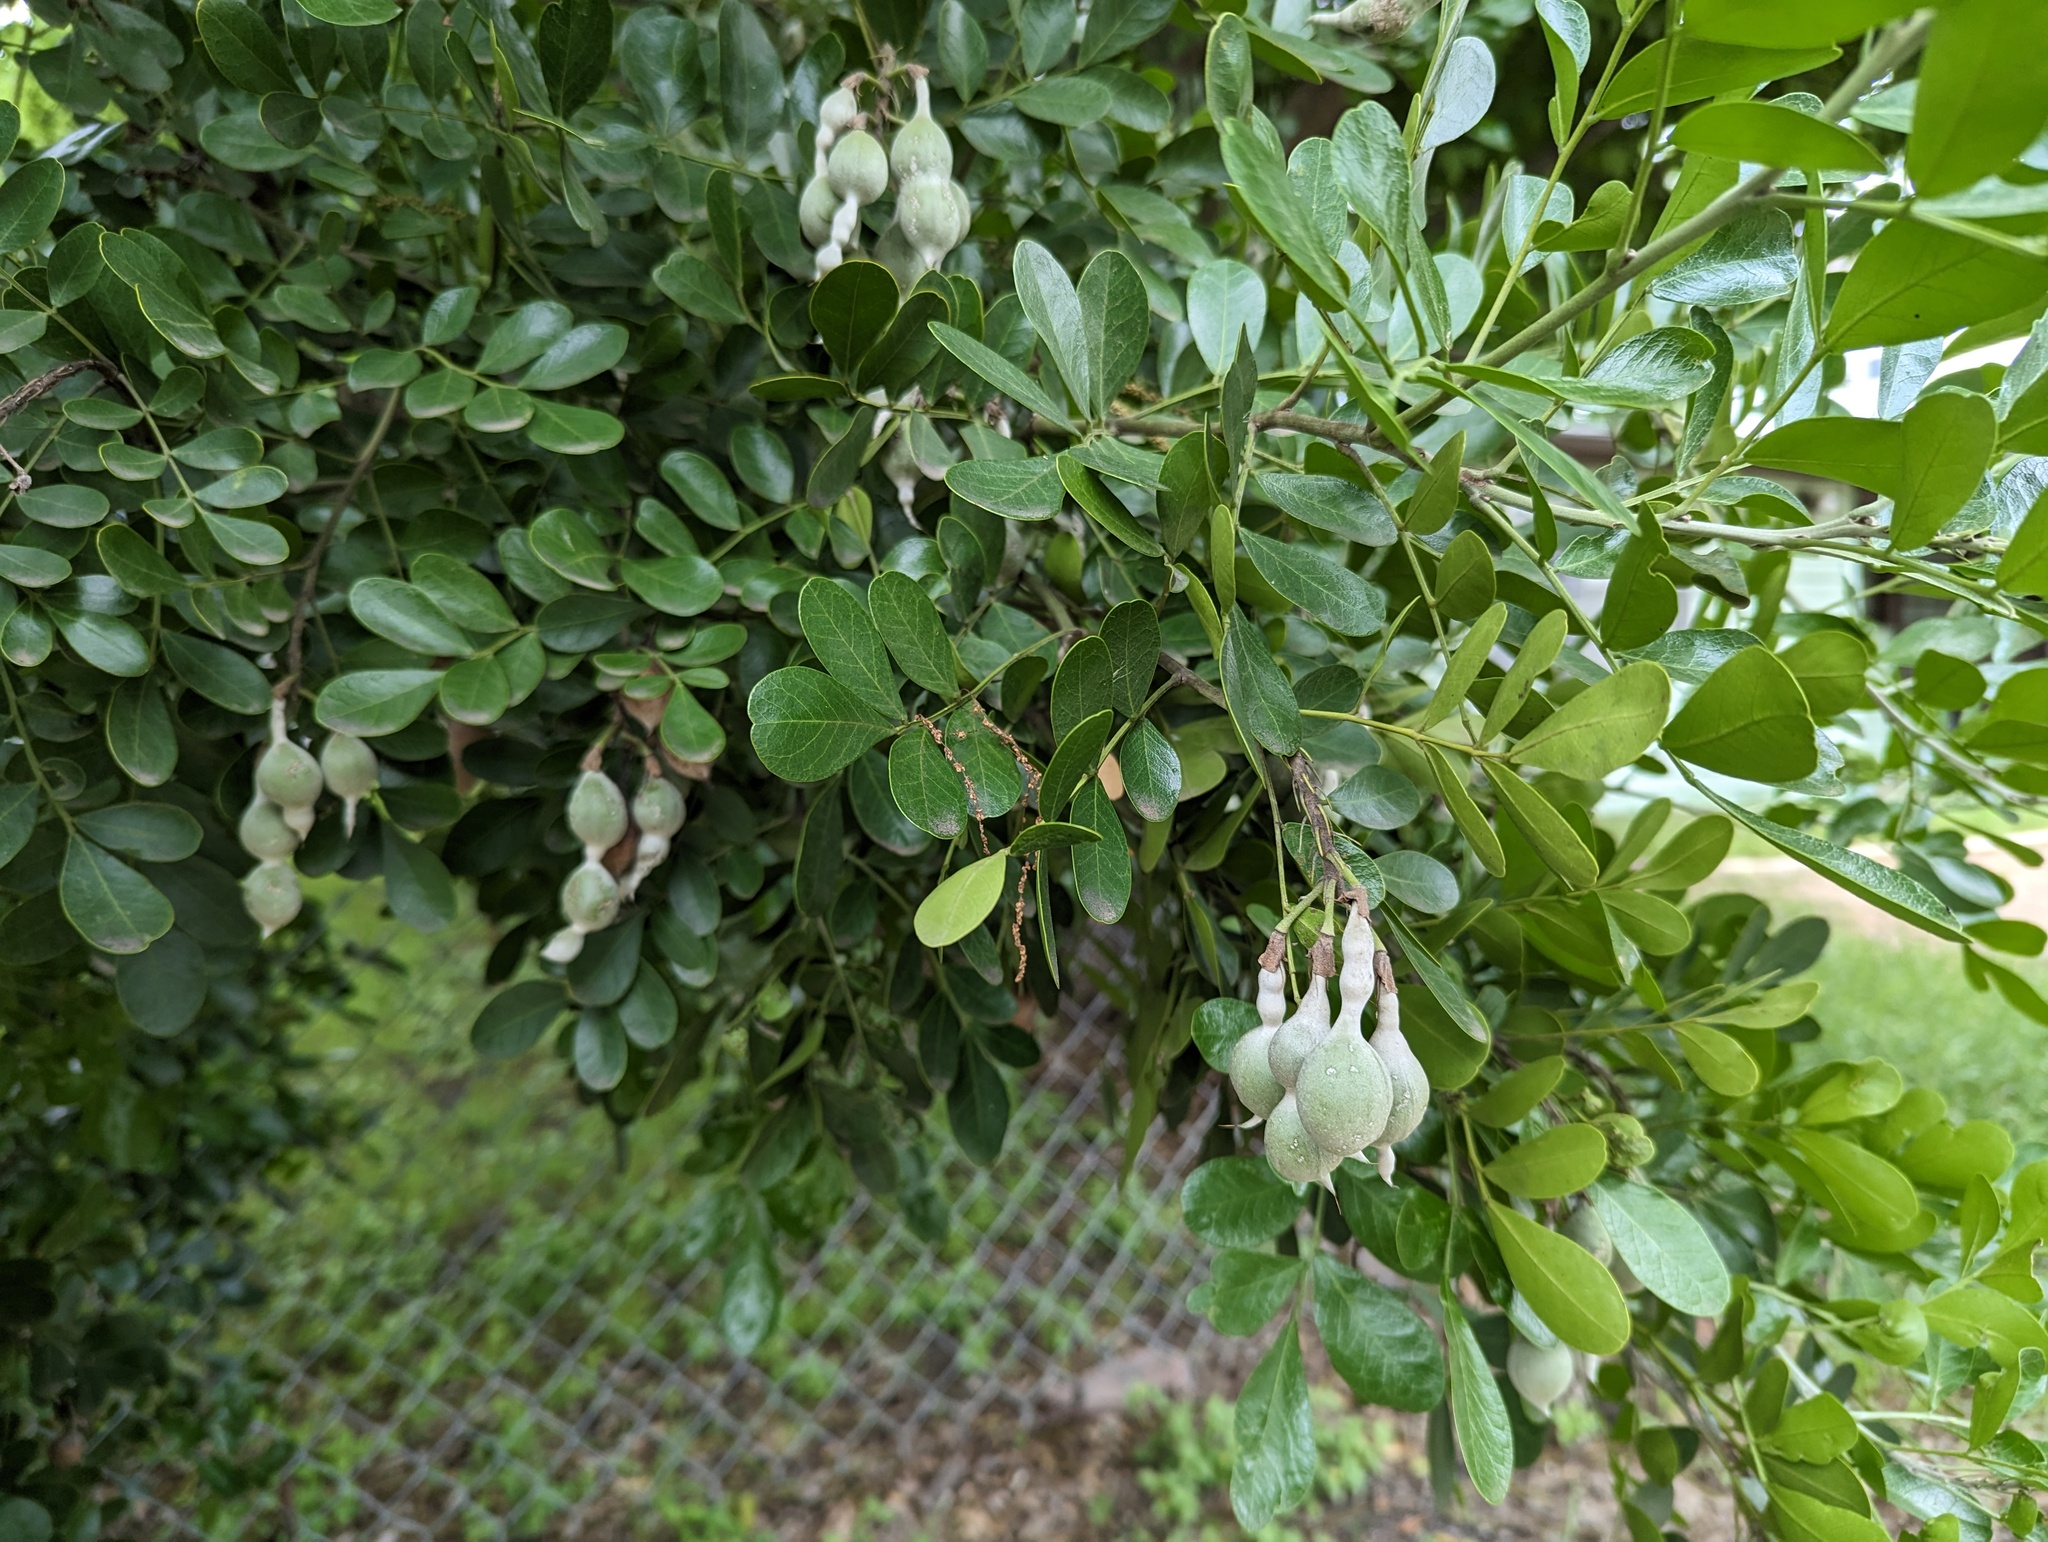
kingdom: Plantae
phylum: Tracheophyta
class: Magnoliopsida
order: Fabales
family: Fabaceae
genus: Dermatophyllum
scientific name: Dermatophyllum secundiflorum
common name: Texas-mountain-laurel
